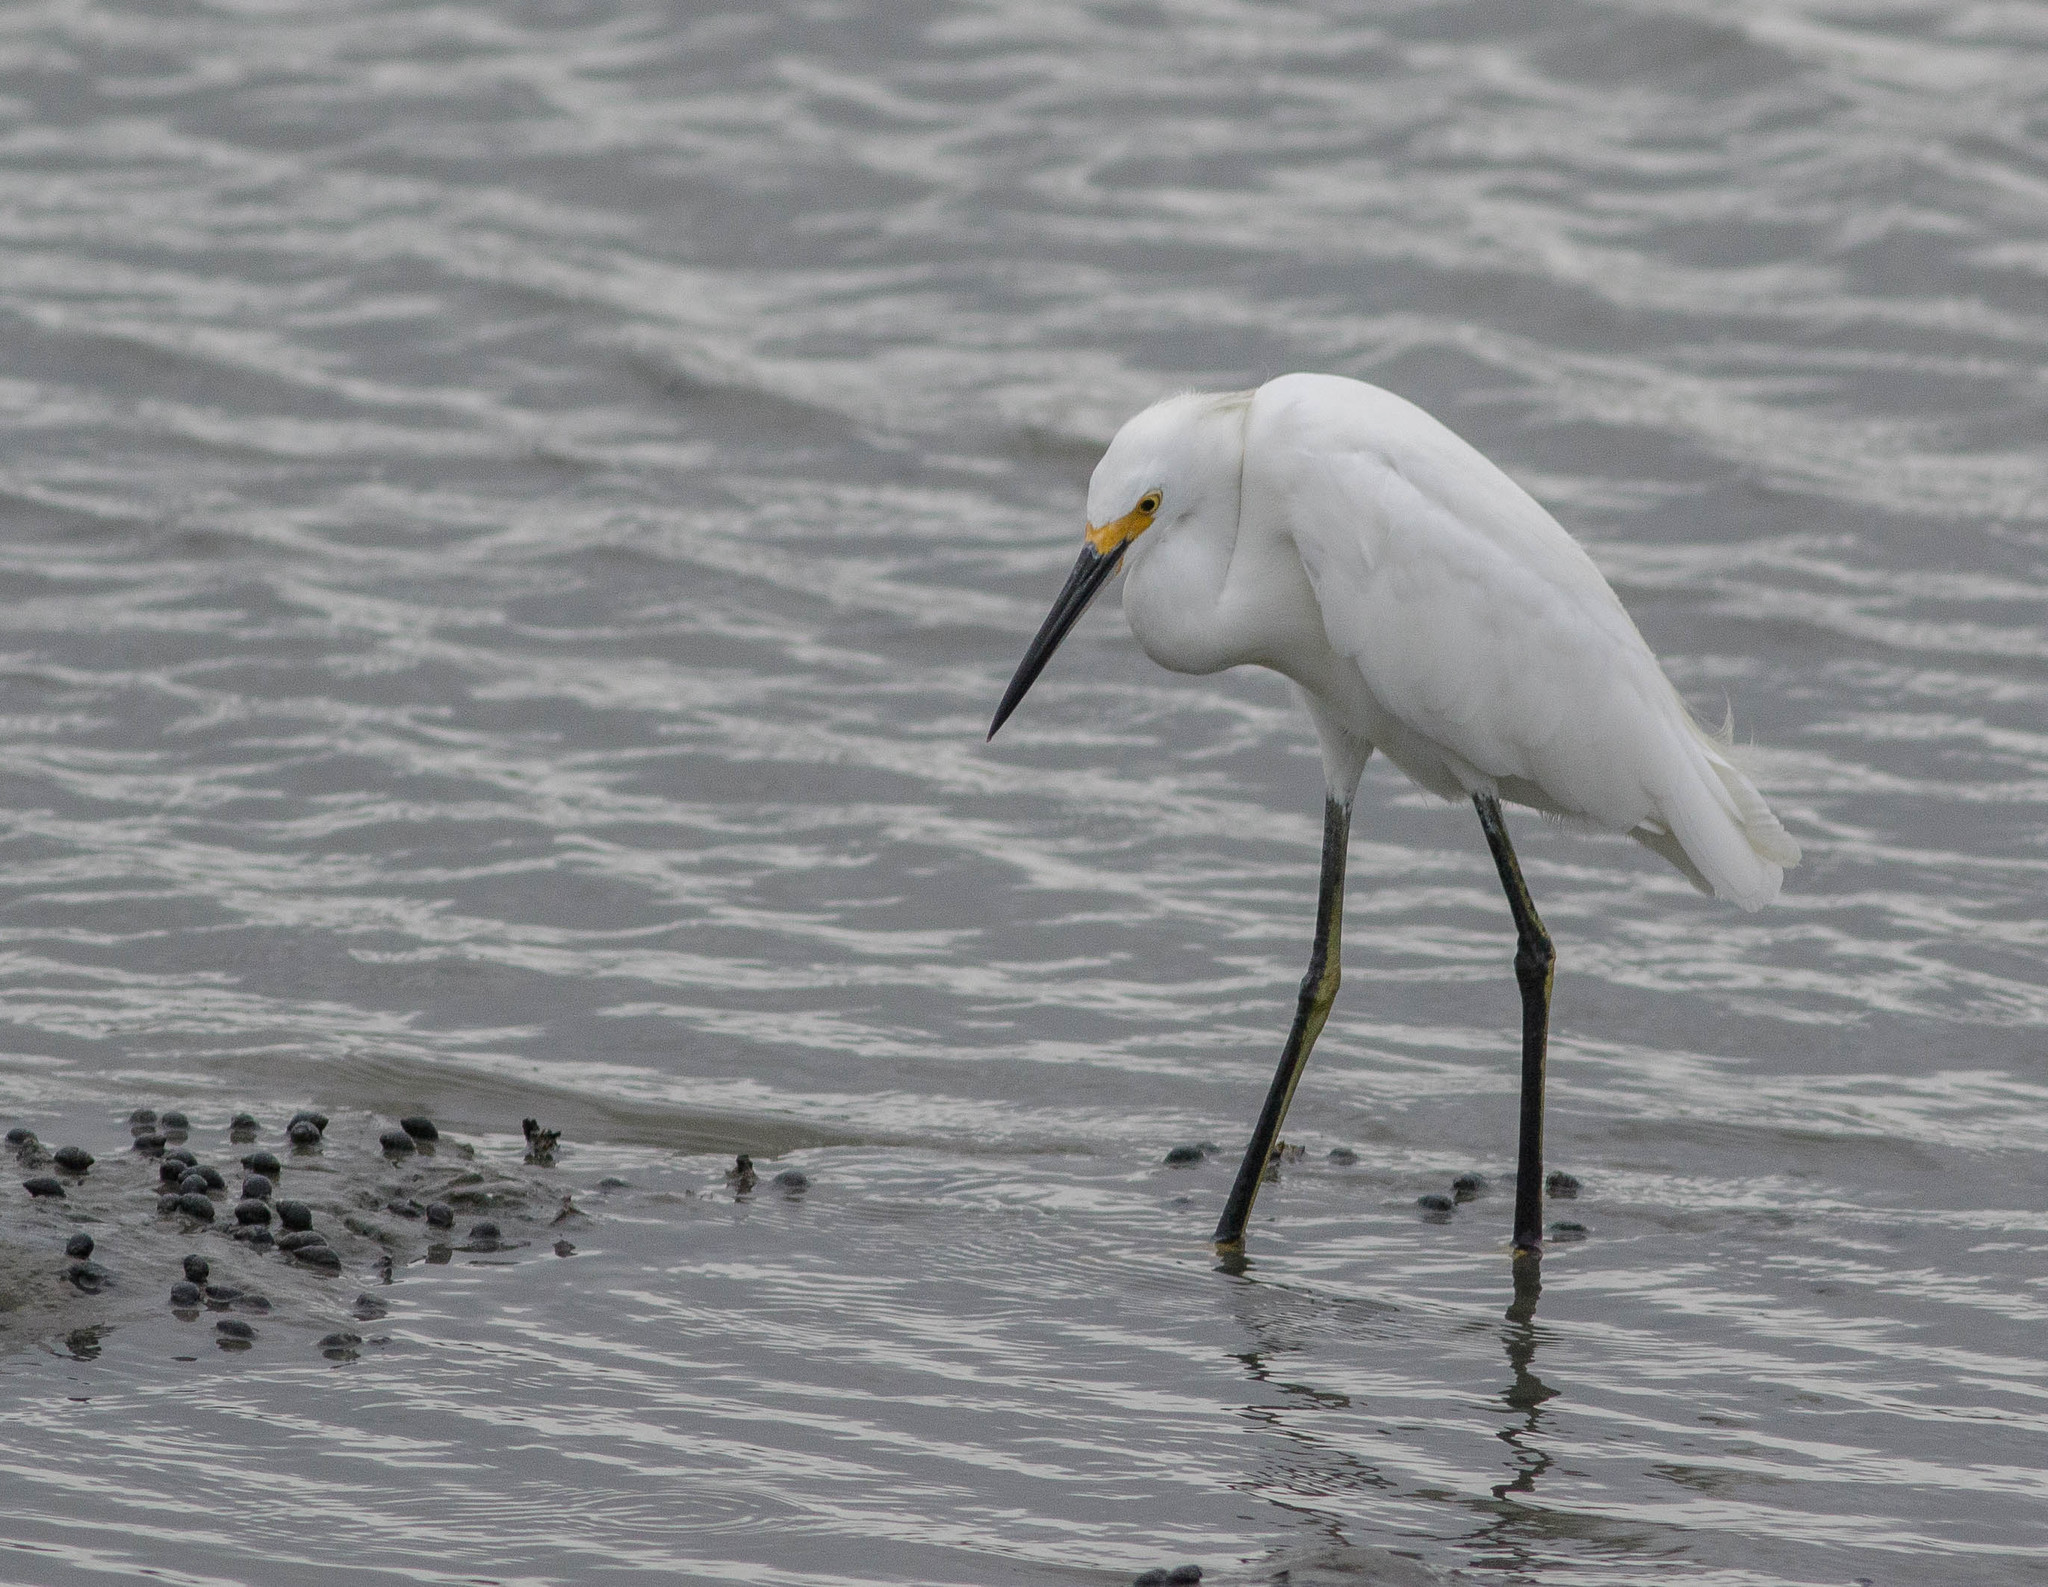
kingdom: Animalia
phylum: Chordata
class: Aves
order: Pelecaniformes
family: Ardeidae
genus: Egretta
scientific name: Egretta thula
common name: Snowy egret
